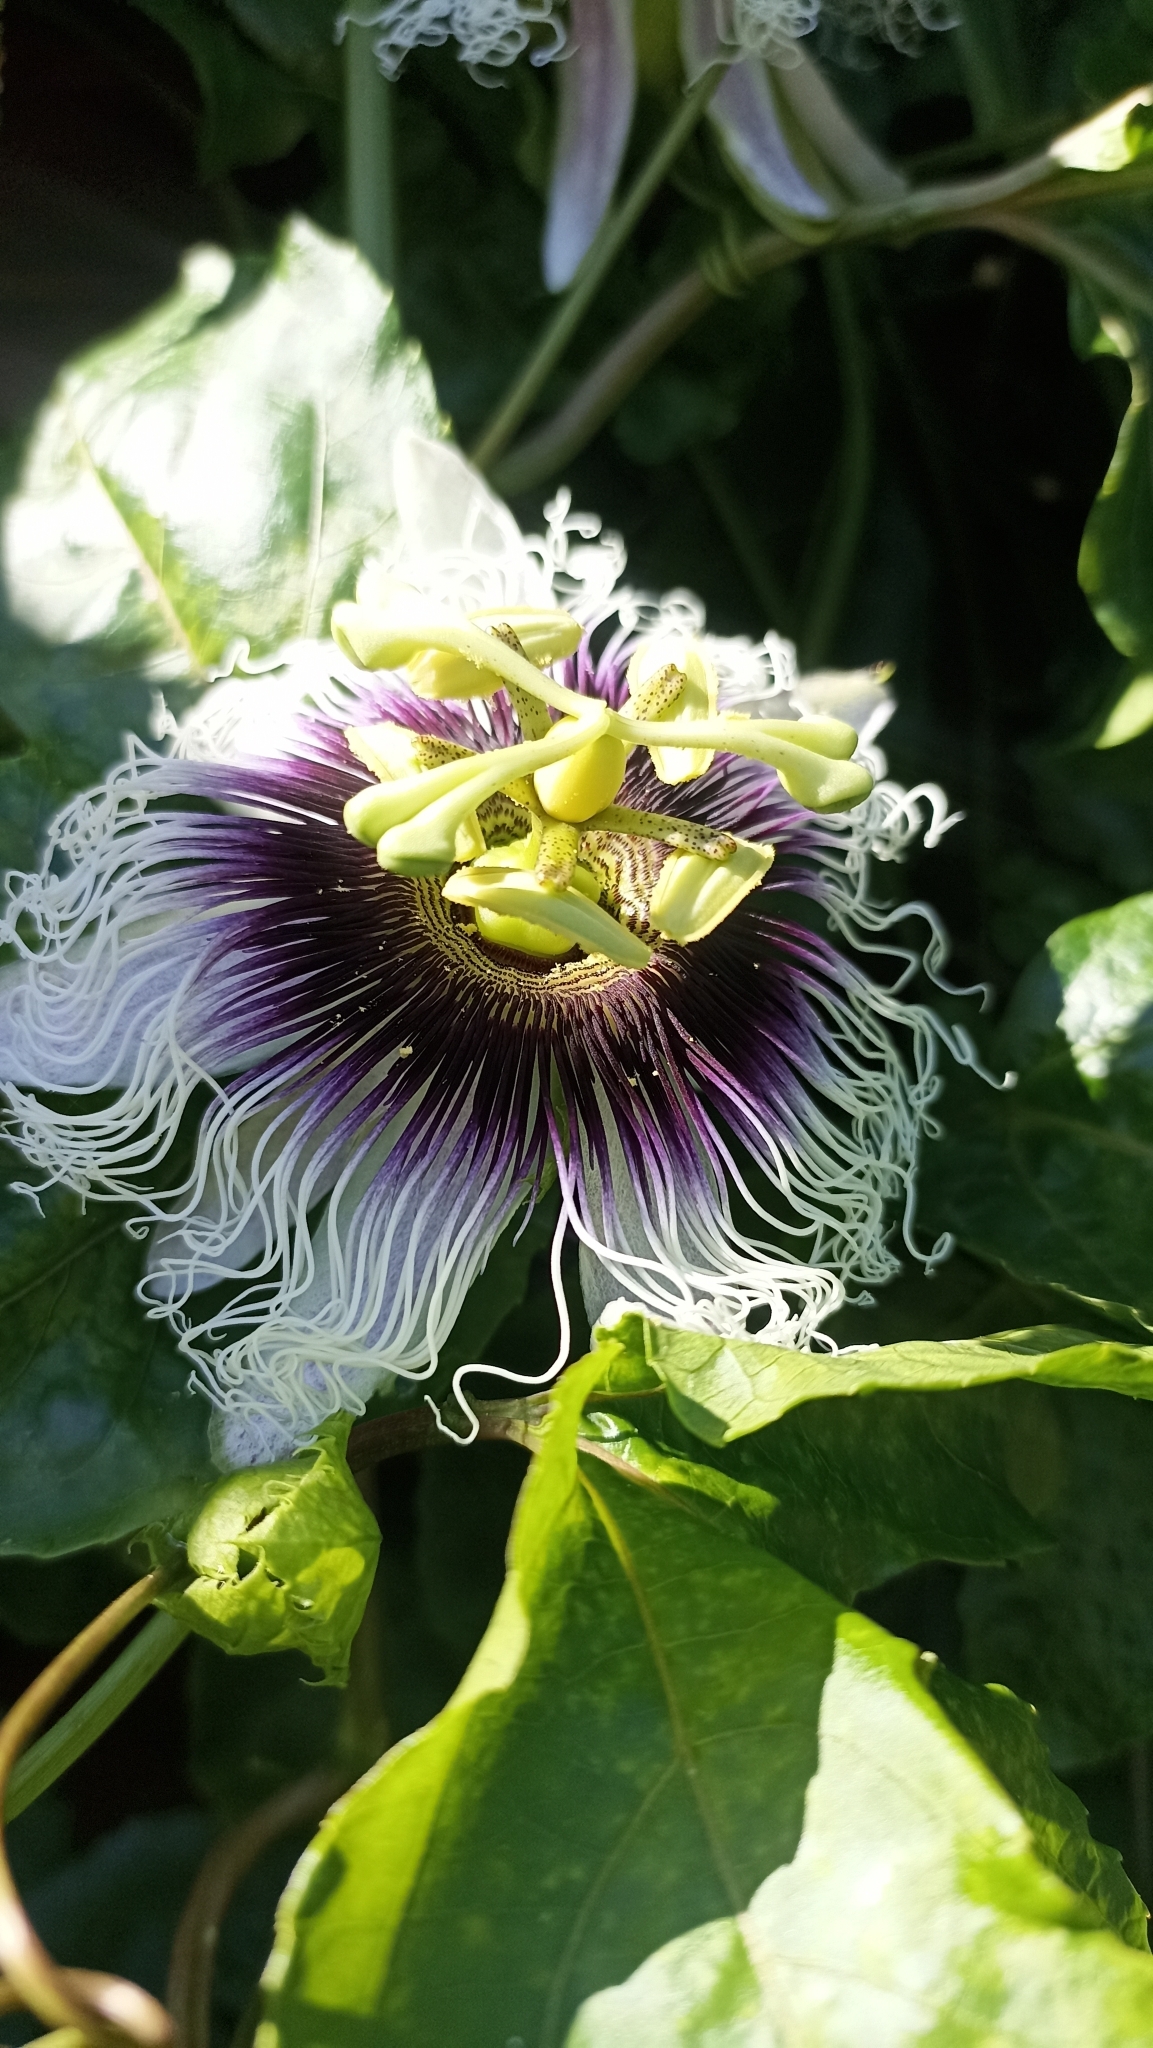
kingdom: Plantae
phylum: Tracheophyta
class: Magnoliopsida
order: Malpighiales
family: Passifloraceae
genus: Passiflora
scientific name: Passiflora edulis
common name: Purple granadilla
